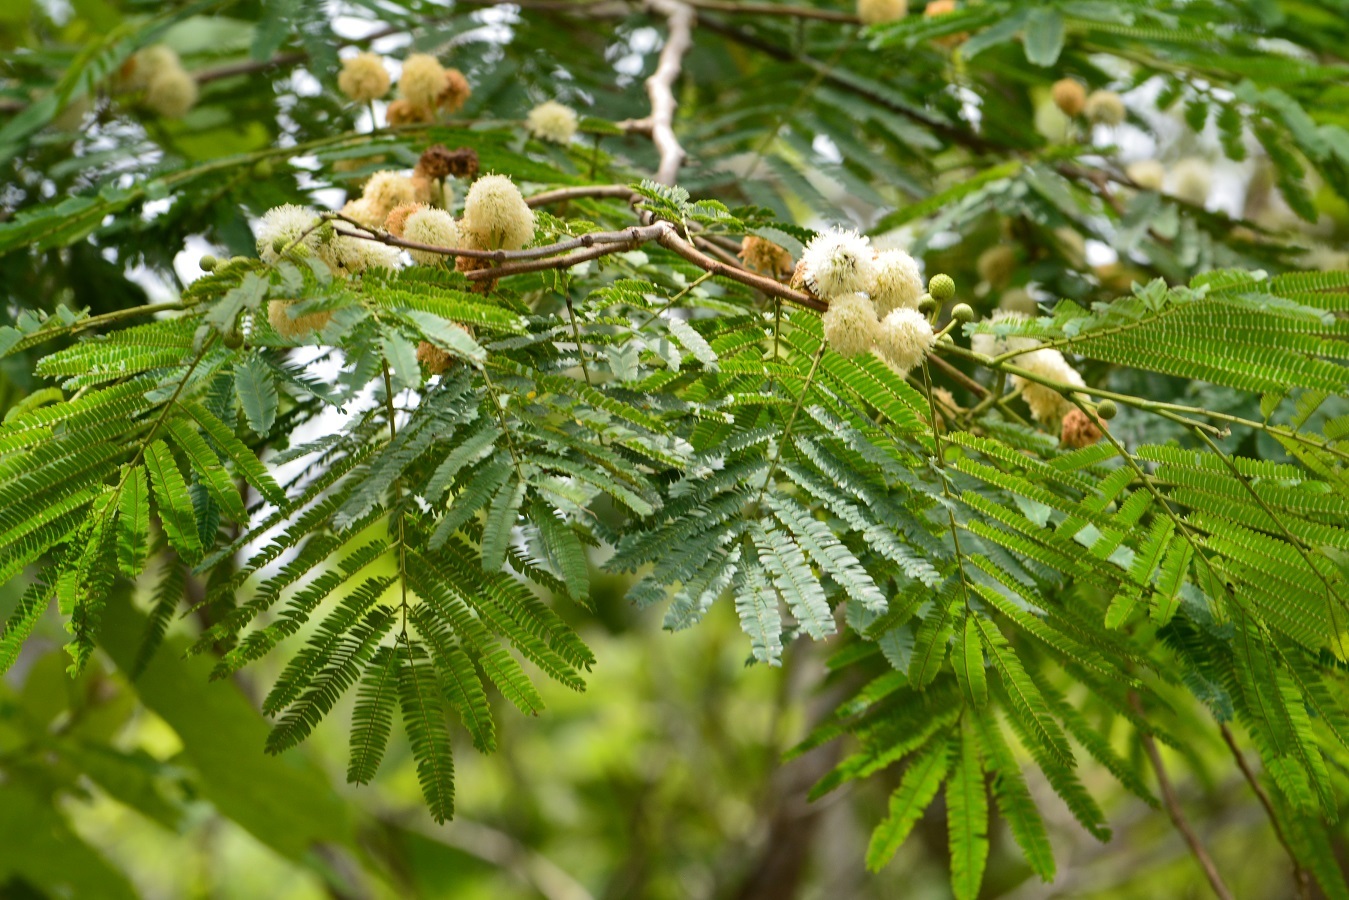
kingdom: Plantae
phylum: Tracheophyta
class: Magnoliopsida
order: Fabales
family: Fabaceae
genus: Leucaena
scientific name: Leucaena diversifolia
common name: Red leucaena
